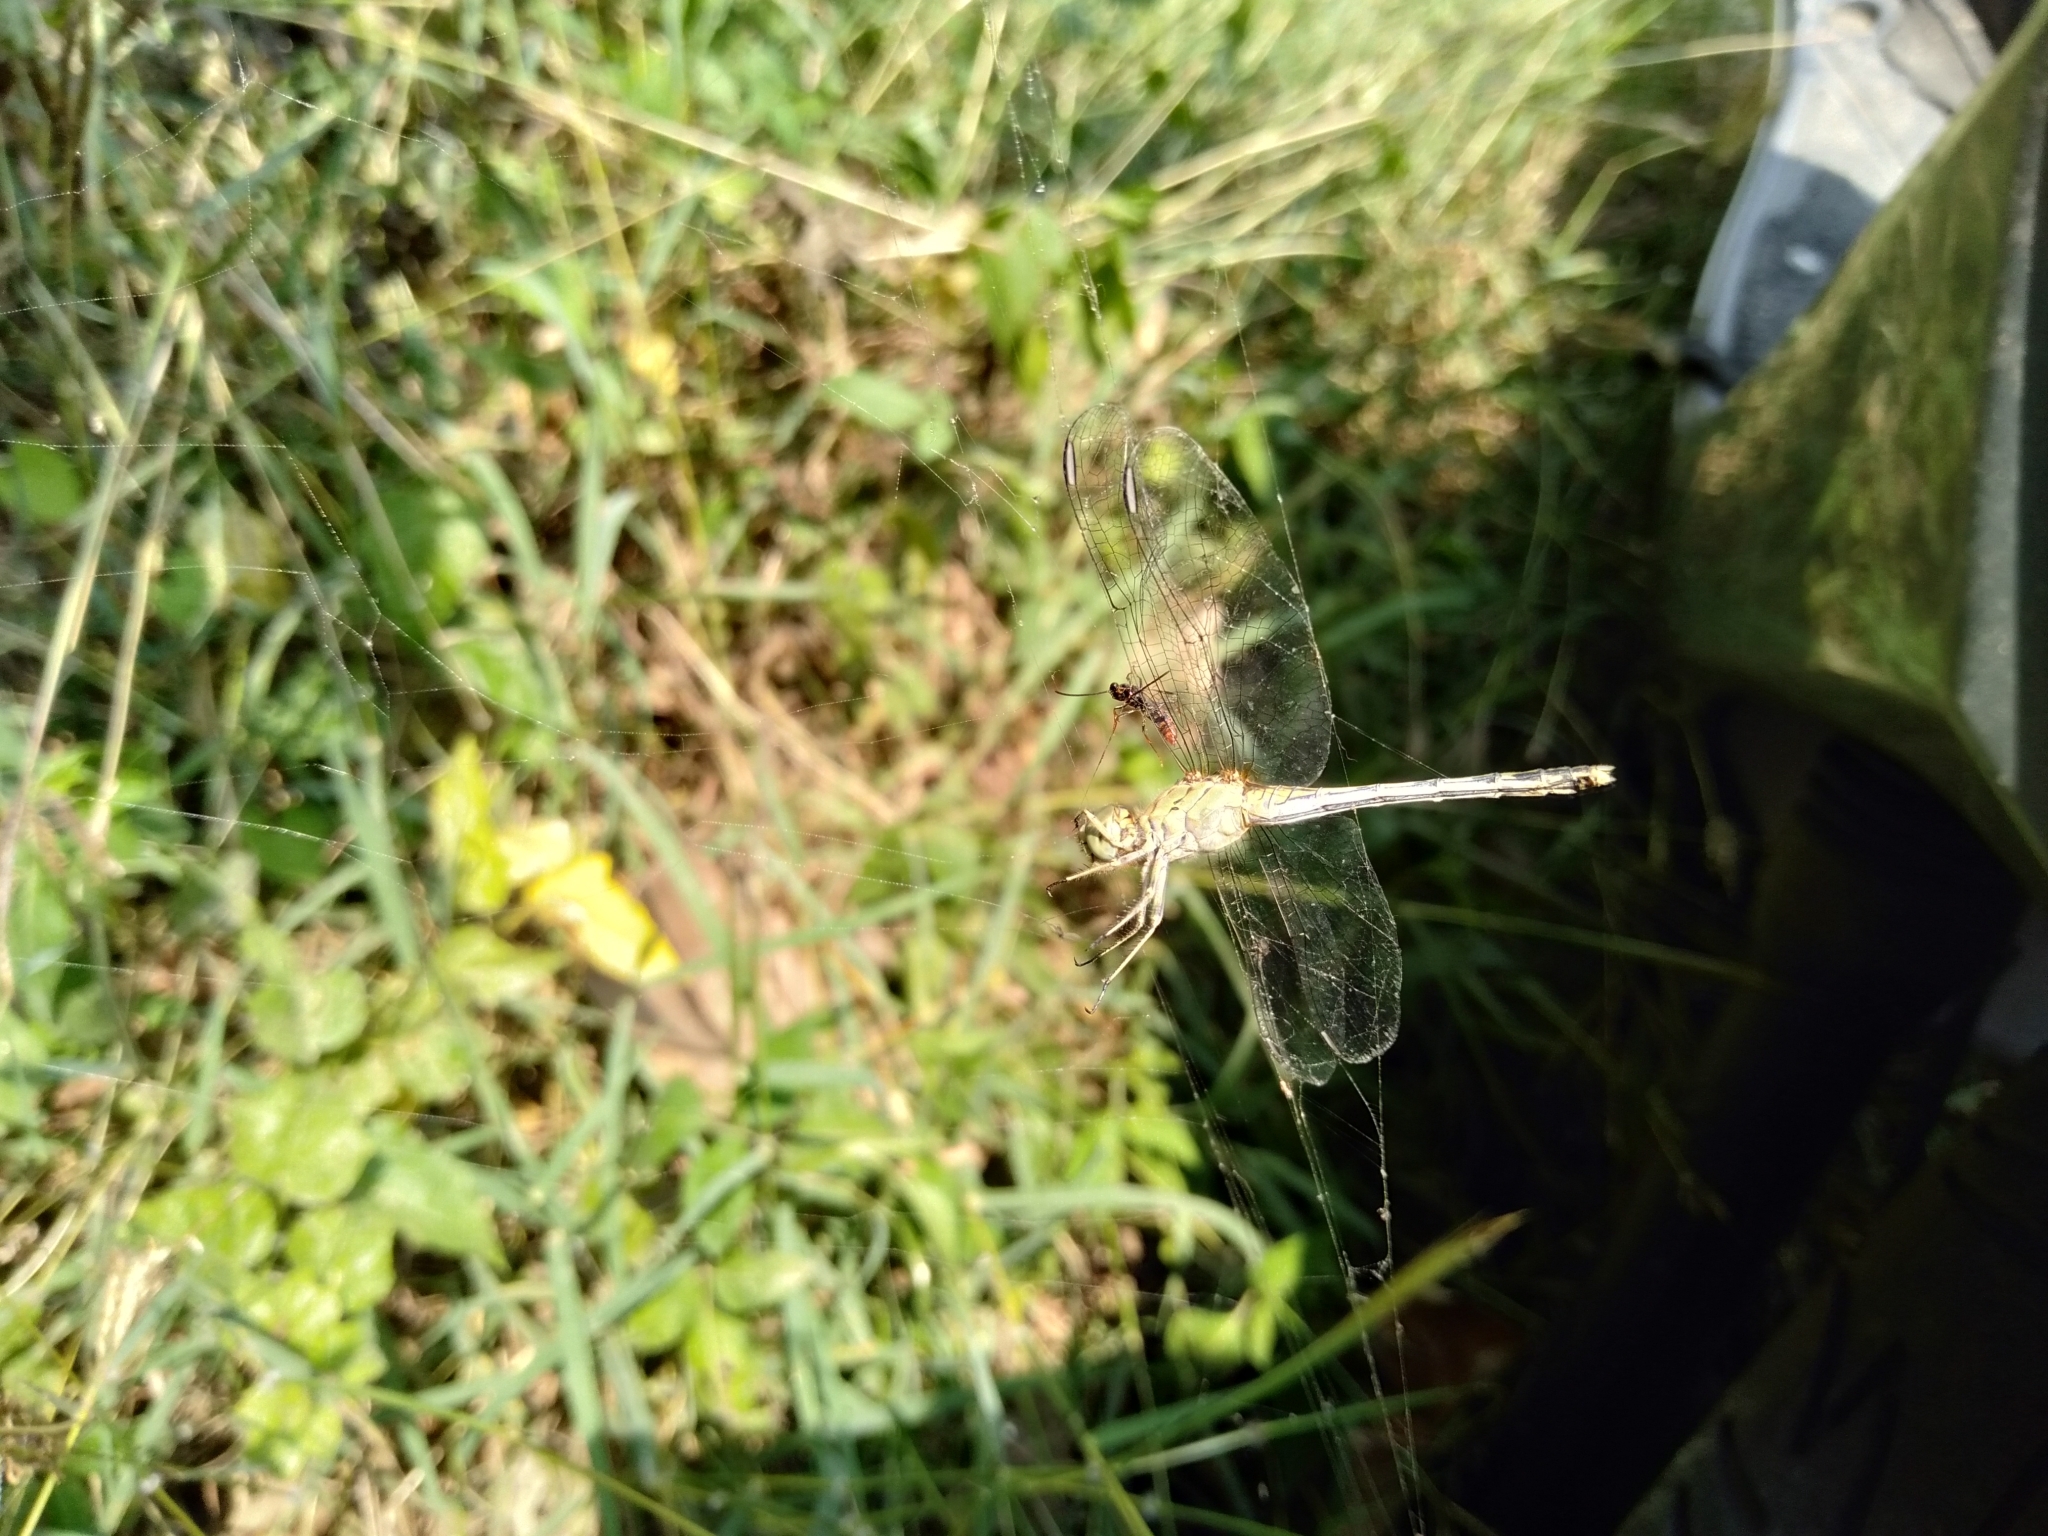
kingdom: Animalia
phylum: Arthropoda
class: Insecta
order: Odonata
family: Libellulidae
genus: Diplacodes
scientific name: Diplacodes trivialis
